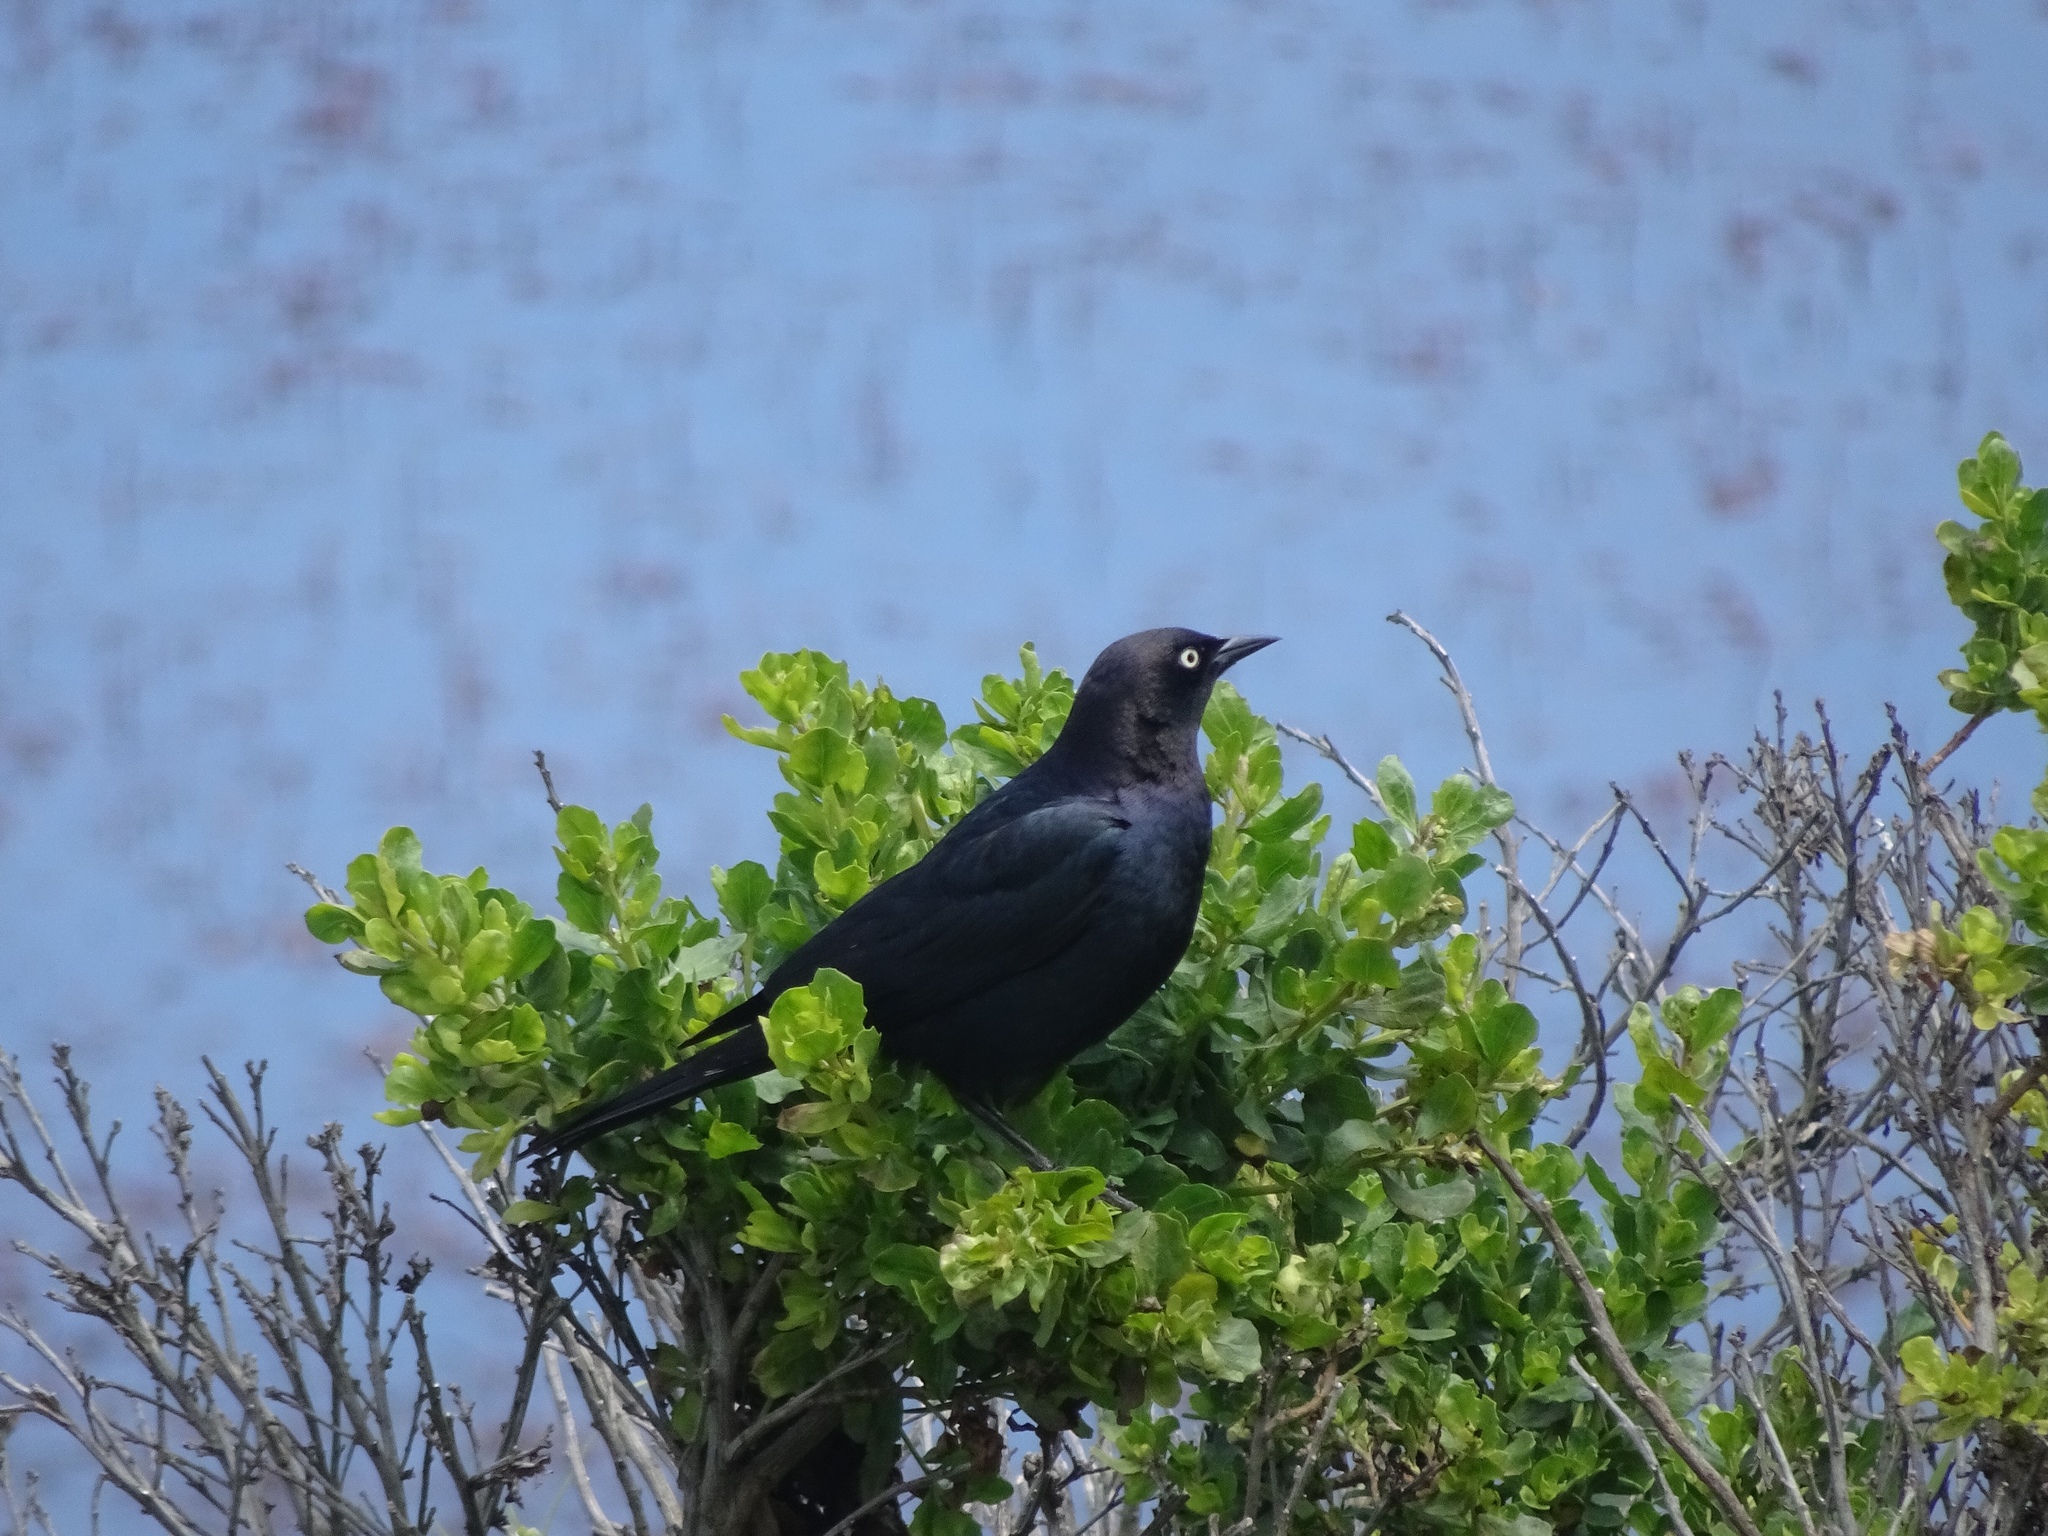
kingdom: Animalia
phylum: Chordata
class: Aves
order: Passeriformes
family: Icteridae
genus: Euphagus
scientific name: Euphagus cyanocephalus
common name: Brewer's blackbird
